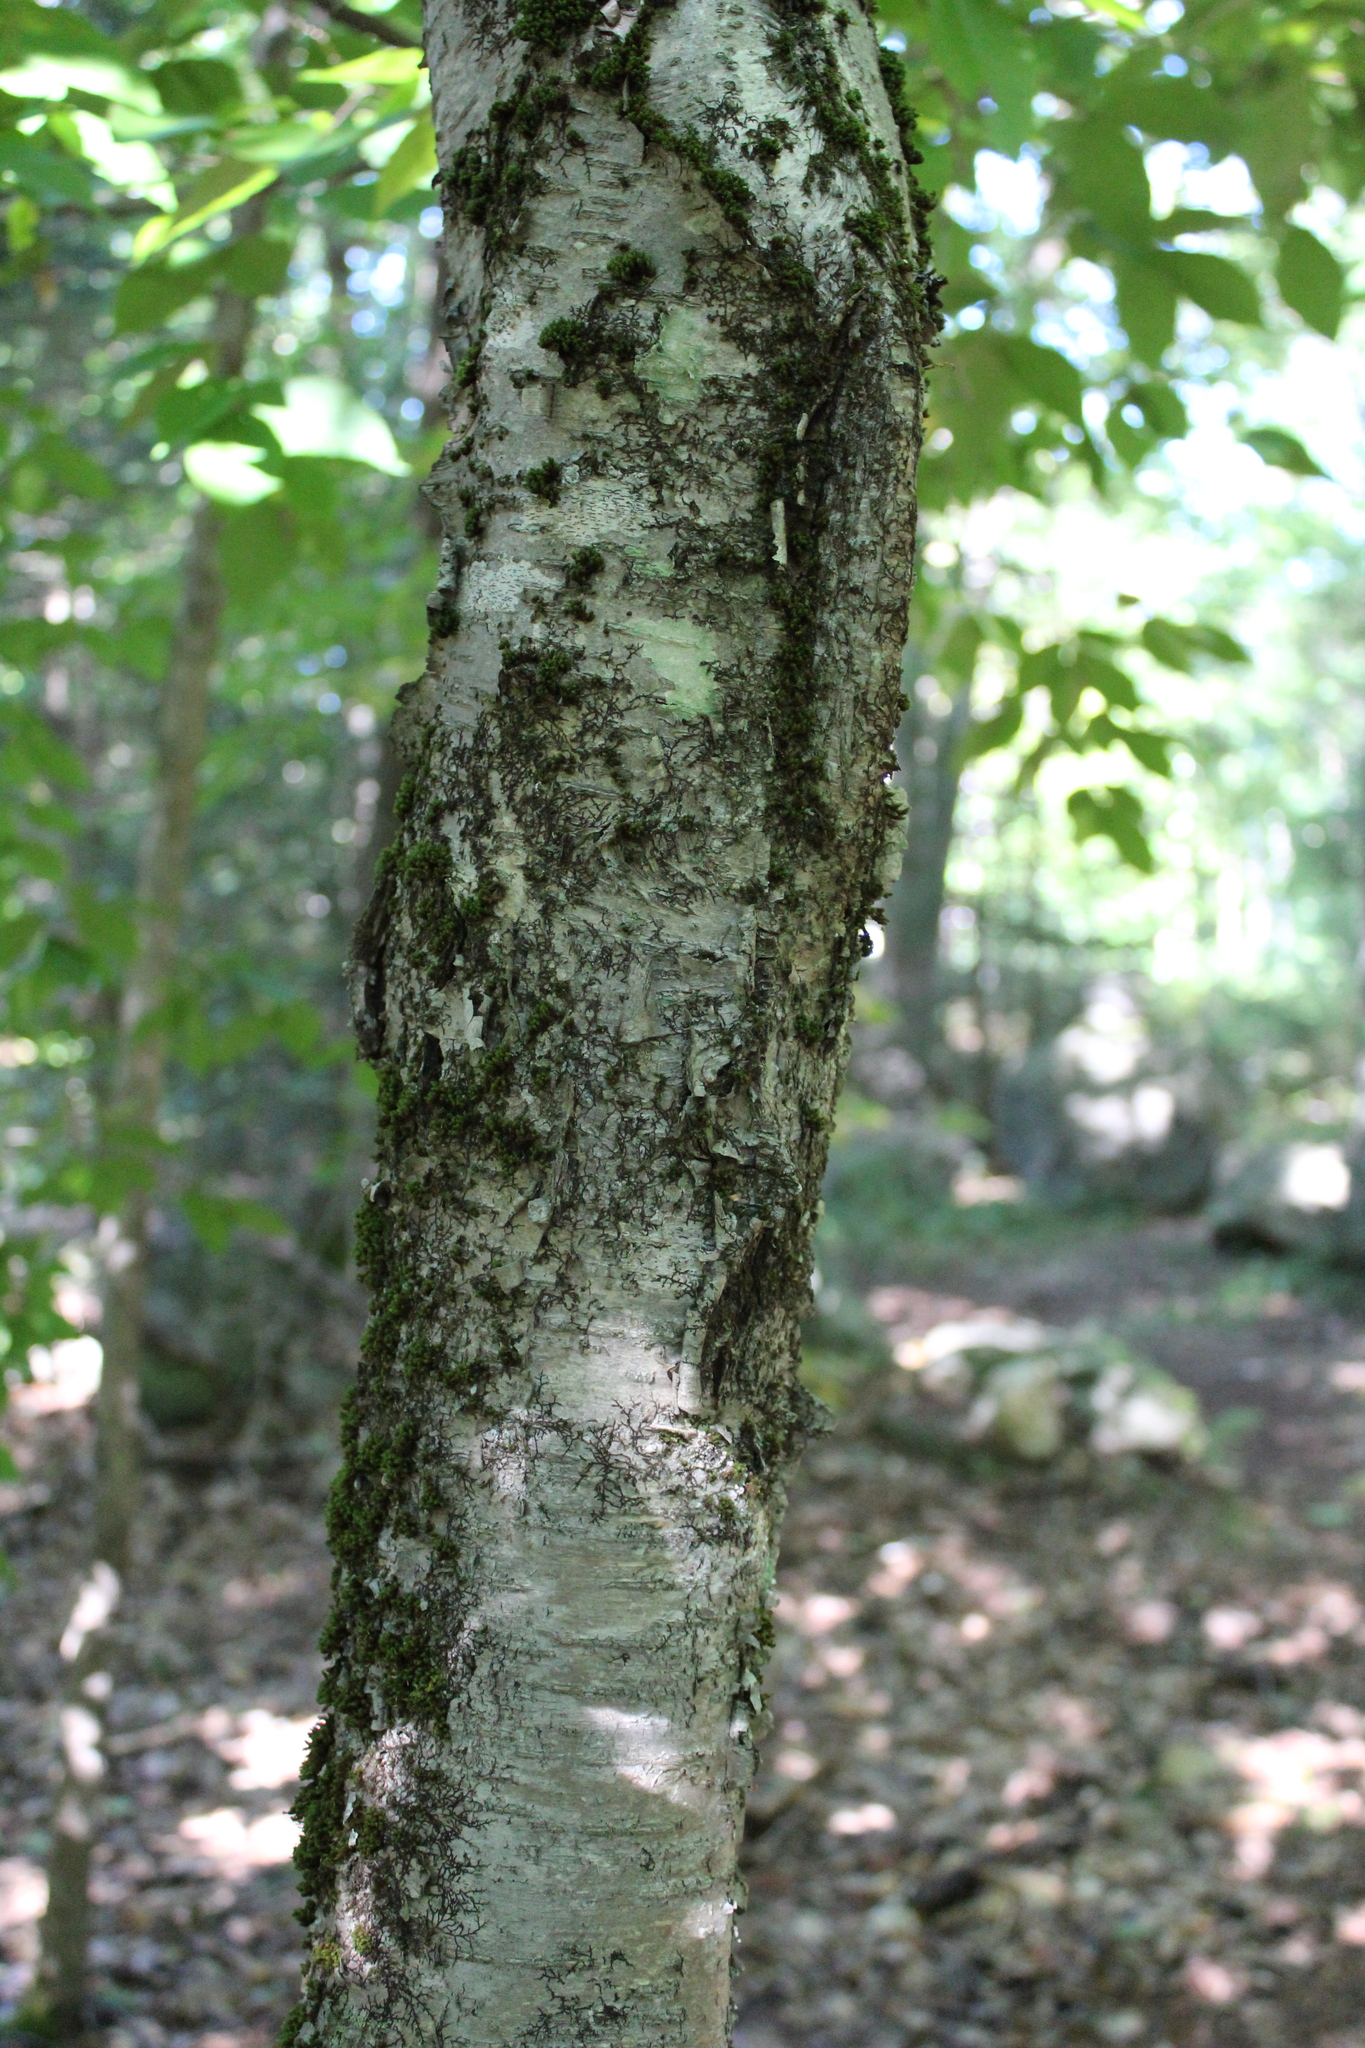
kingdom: Plantae
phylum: Tracheophyta
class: Magnoliopsida
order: Fagales
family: Betulaceae
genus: Betula
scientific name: Betula alleghaniensis
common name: Yellow birch
